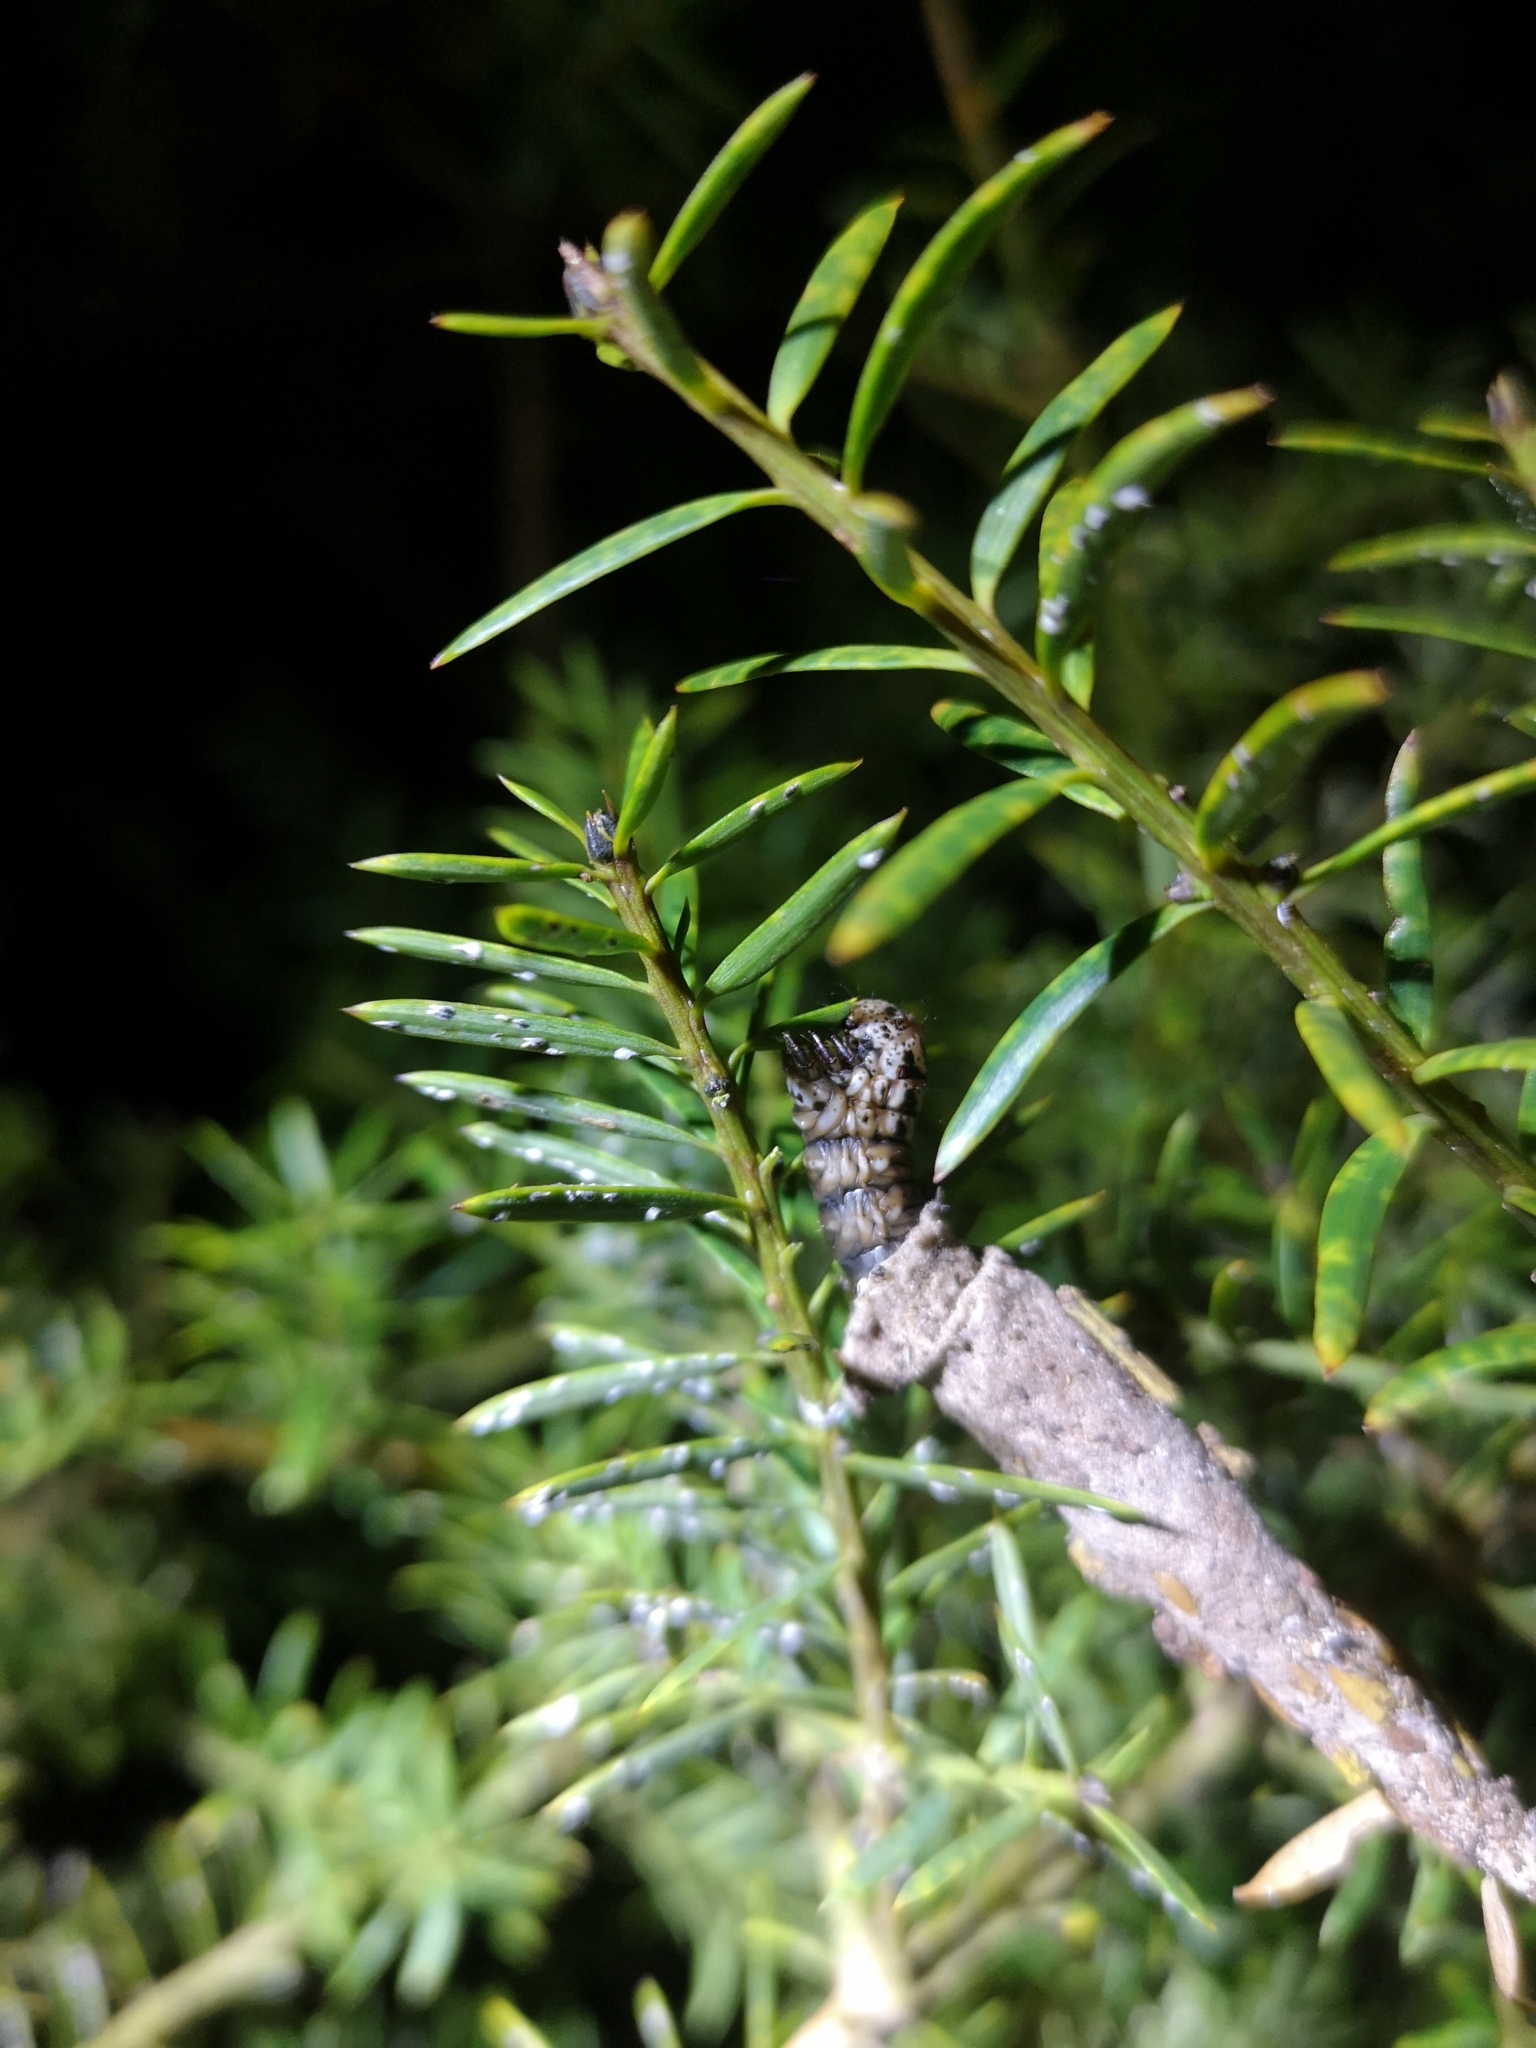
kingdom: Animalia
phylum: Arthropoda
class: Insecta
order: Lepidoptera
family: Psychidae
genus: Liothula
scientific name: Liothula omnivora
